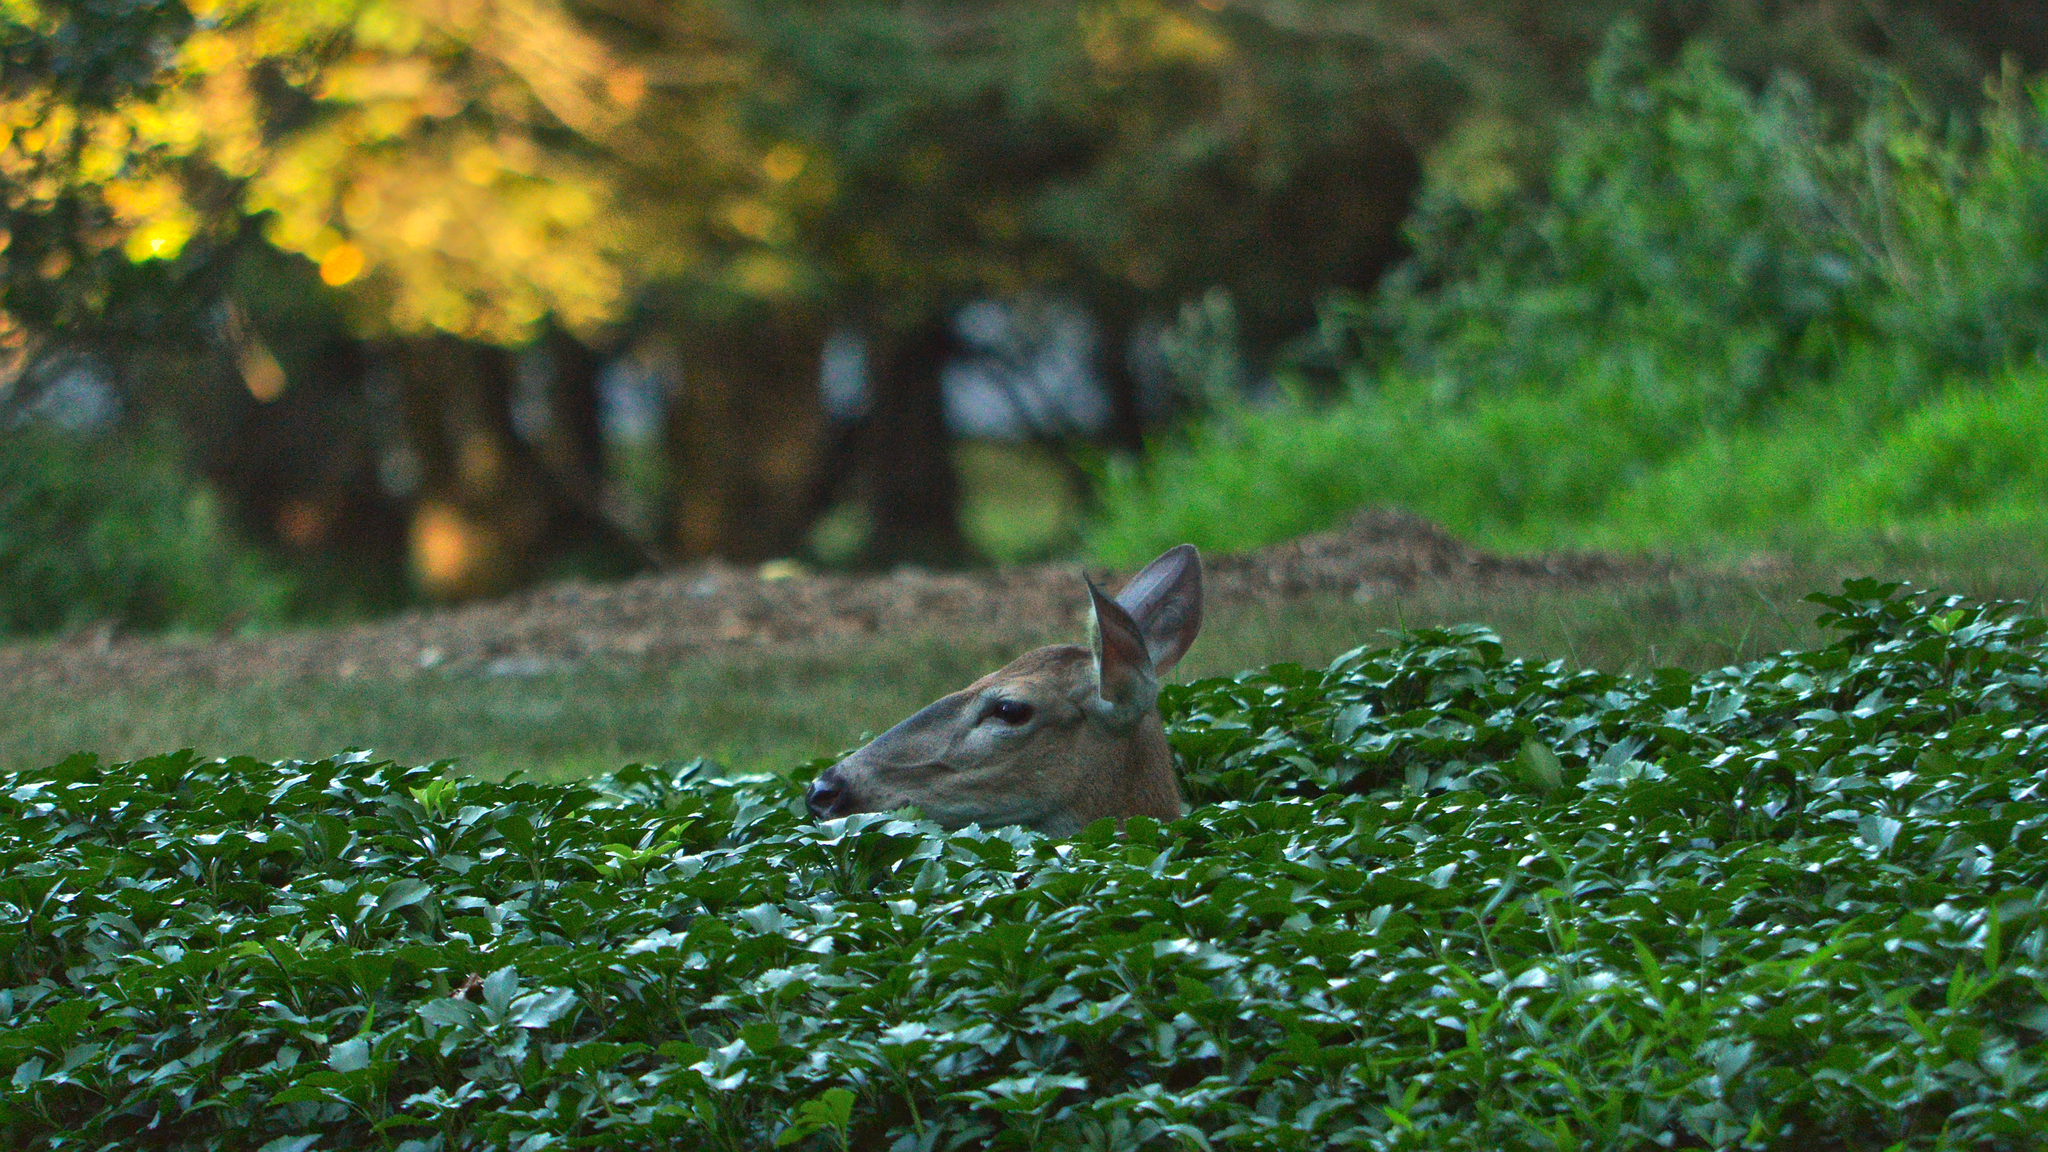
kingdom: Animalia
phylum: Chordata
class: Mammalia
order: Artiodactyla
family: Cervidae
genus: Odocoileus
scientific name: Odocoileus virginianus
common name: White-tailed deer
